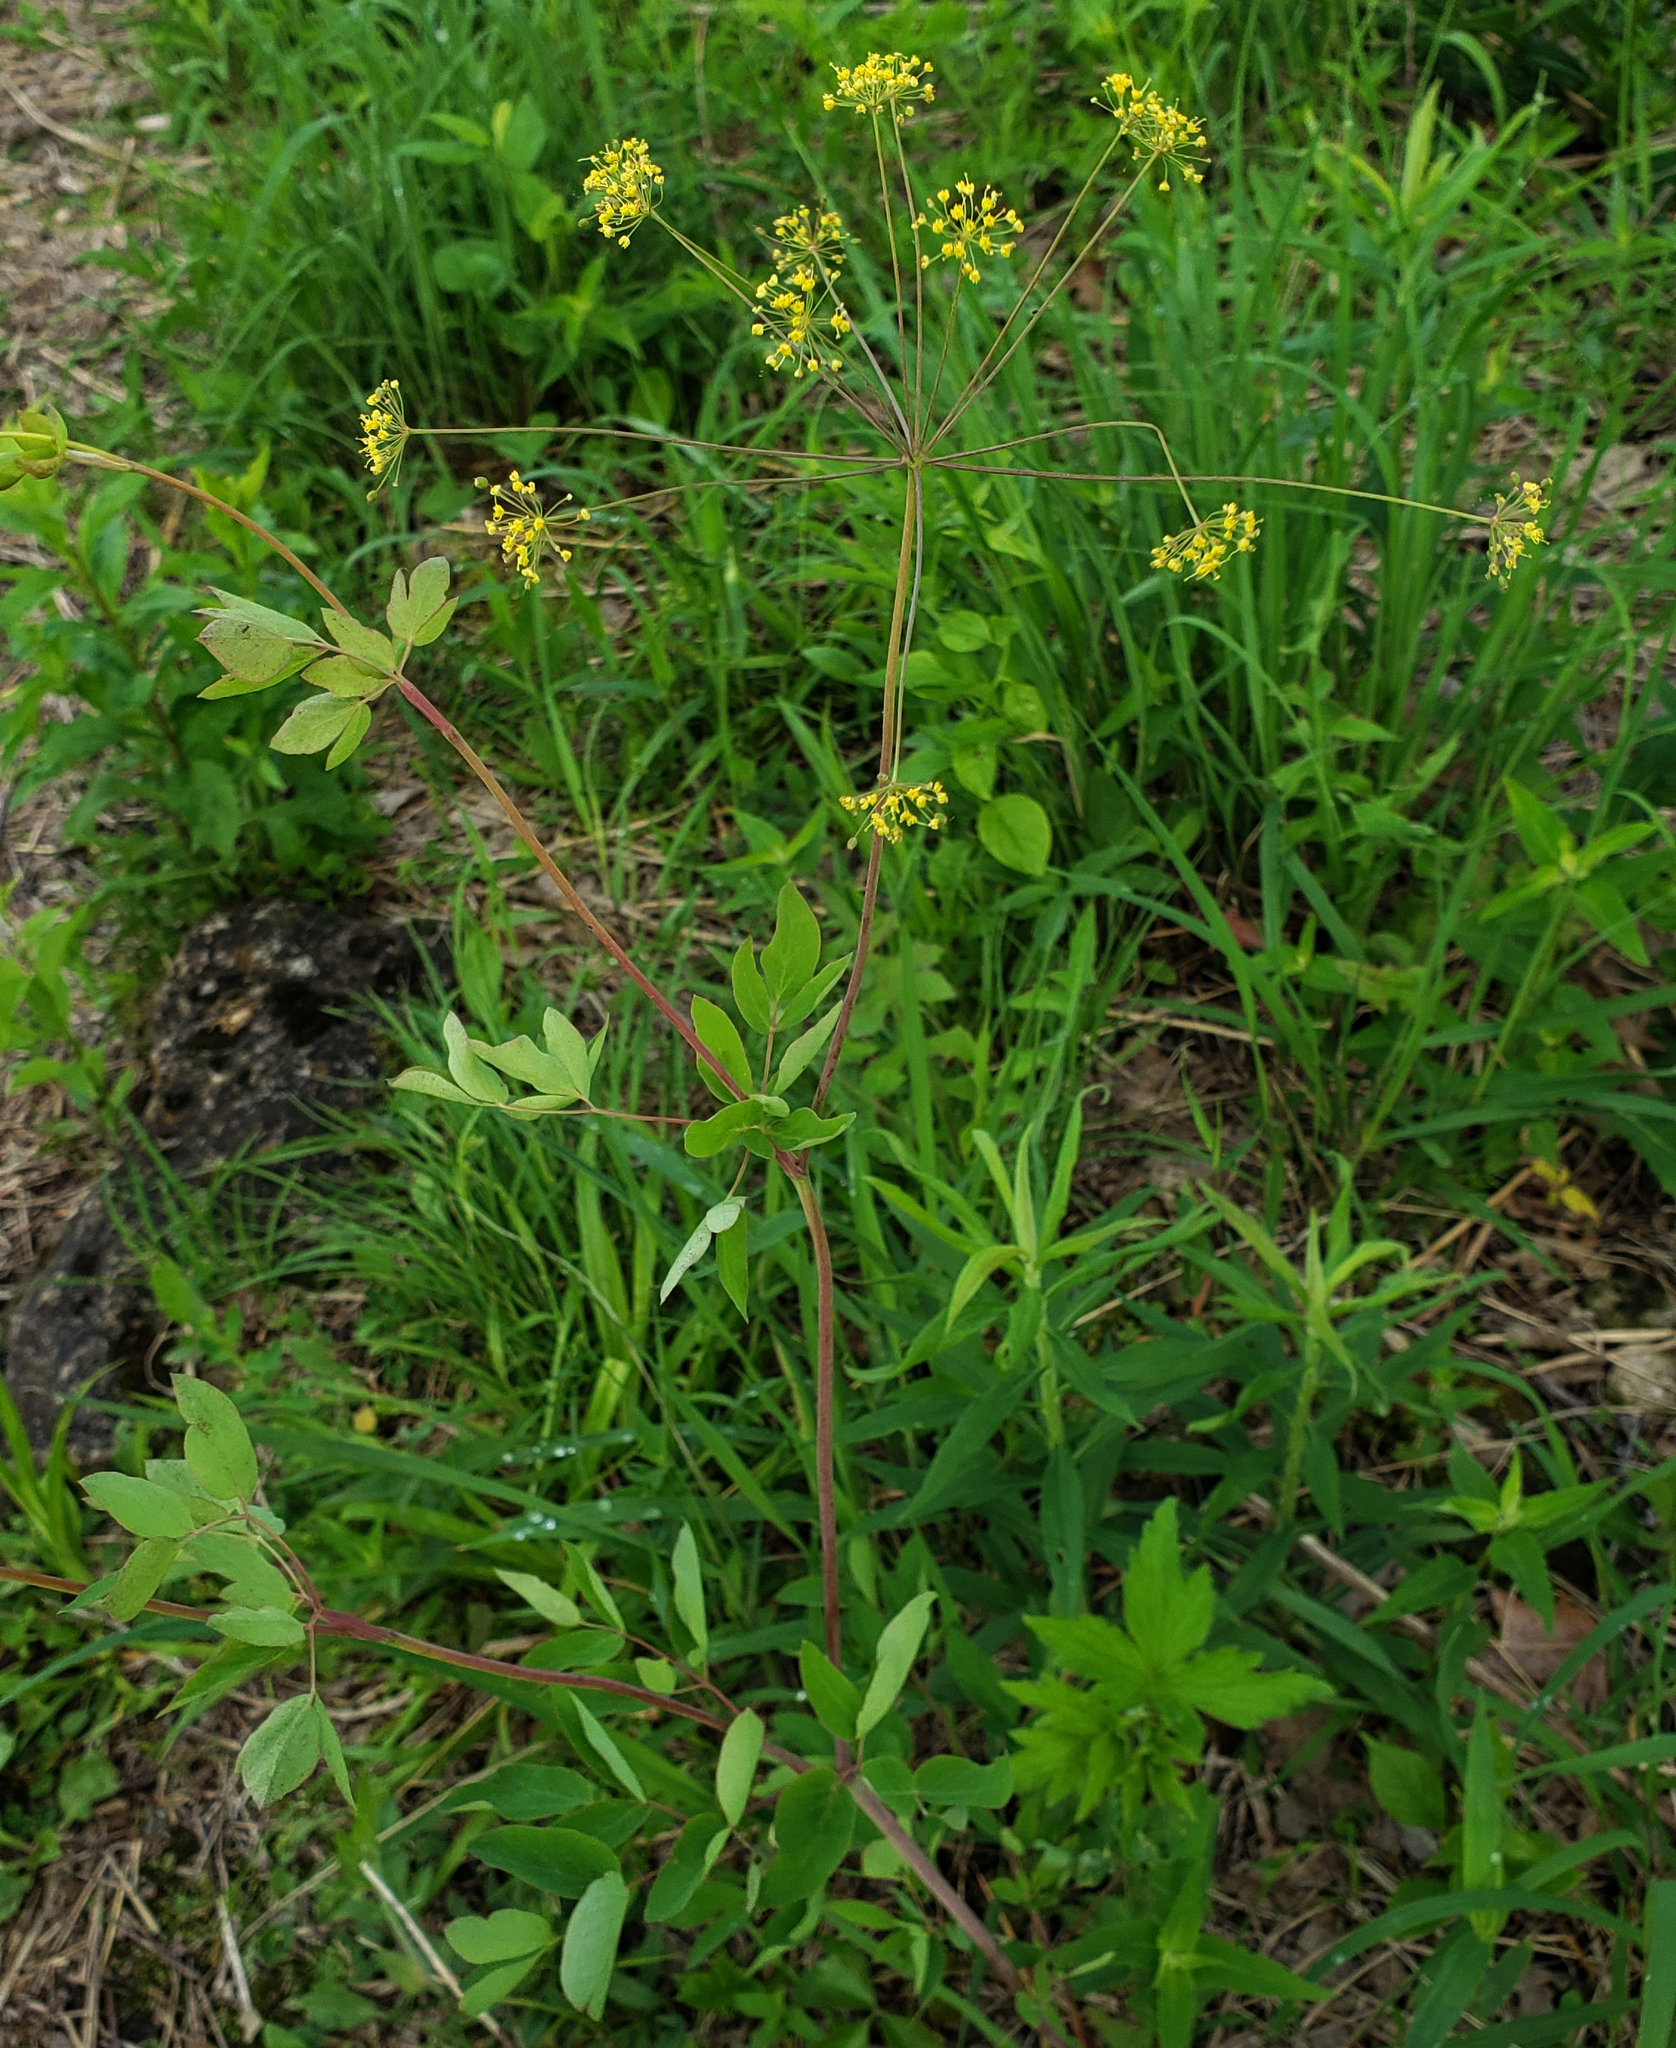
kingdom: Plantae
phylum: Tracheophyta
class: Magnoliopsida
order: Apiales
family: Apiaceae
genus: Taenidia
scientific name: Taenidia integerrima
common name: Golden alexander
